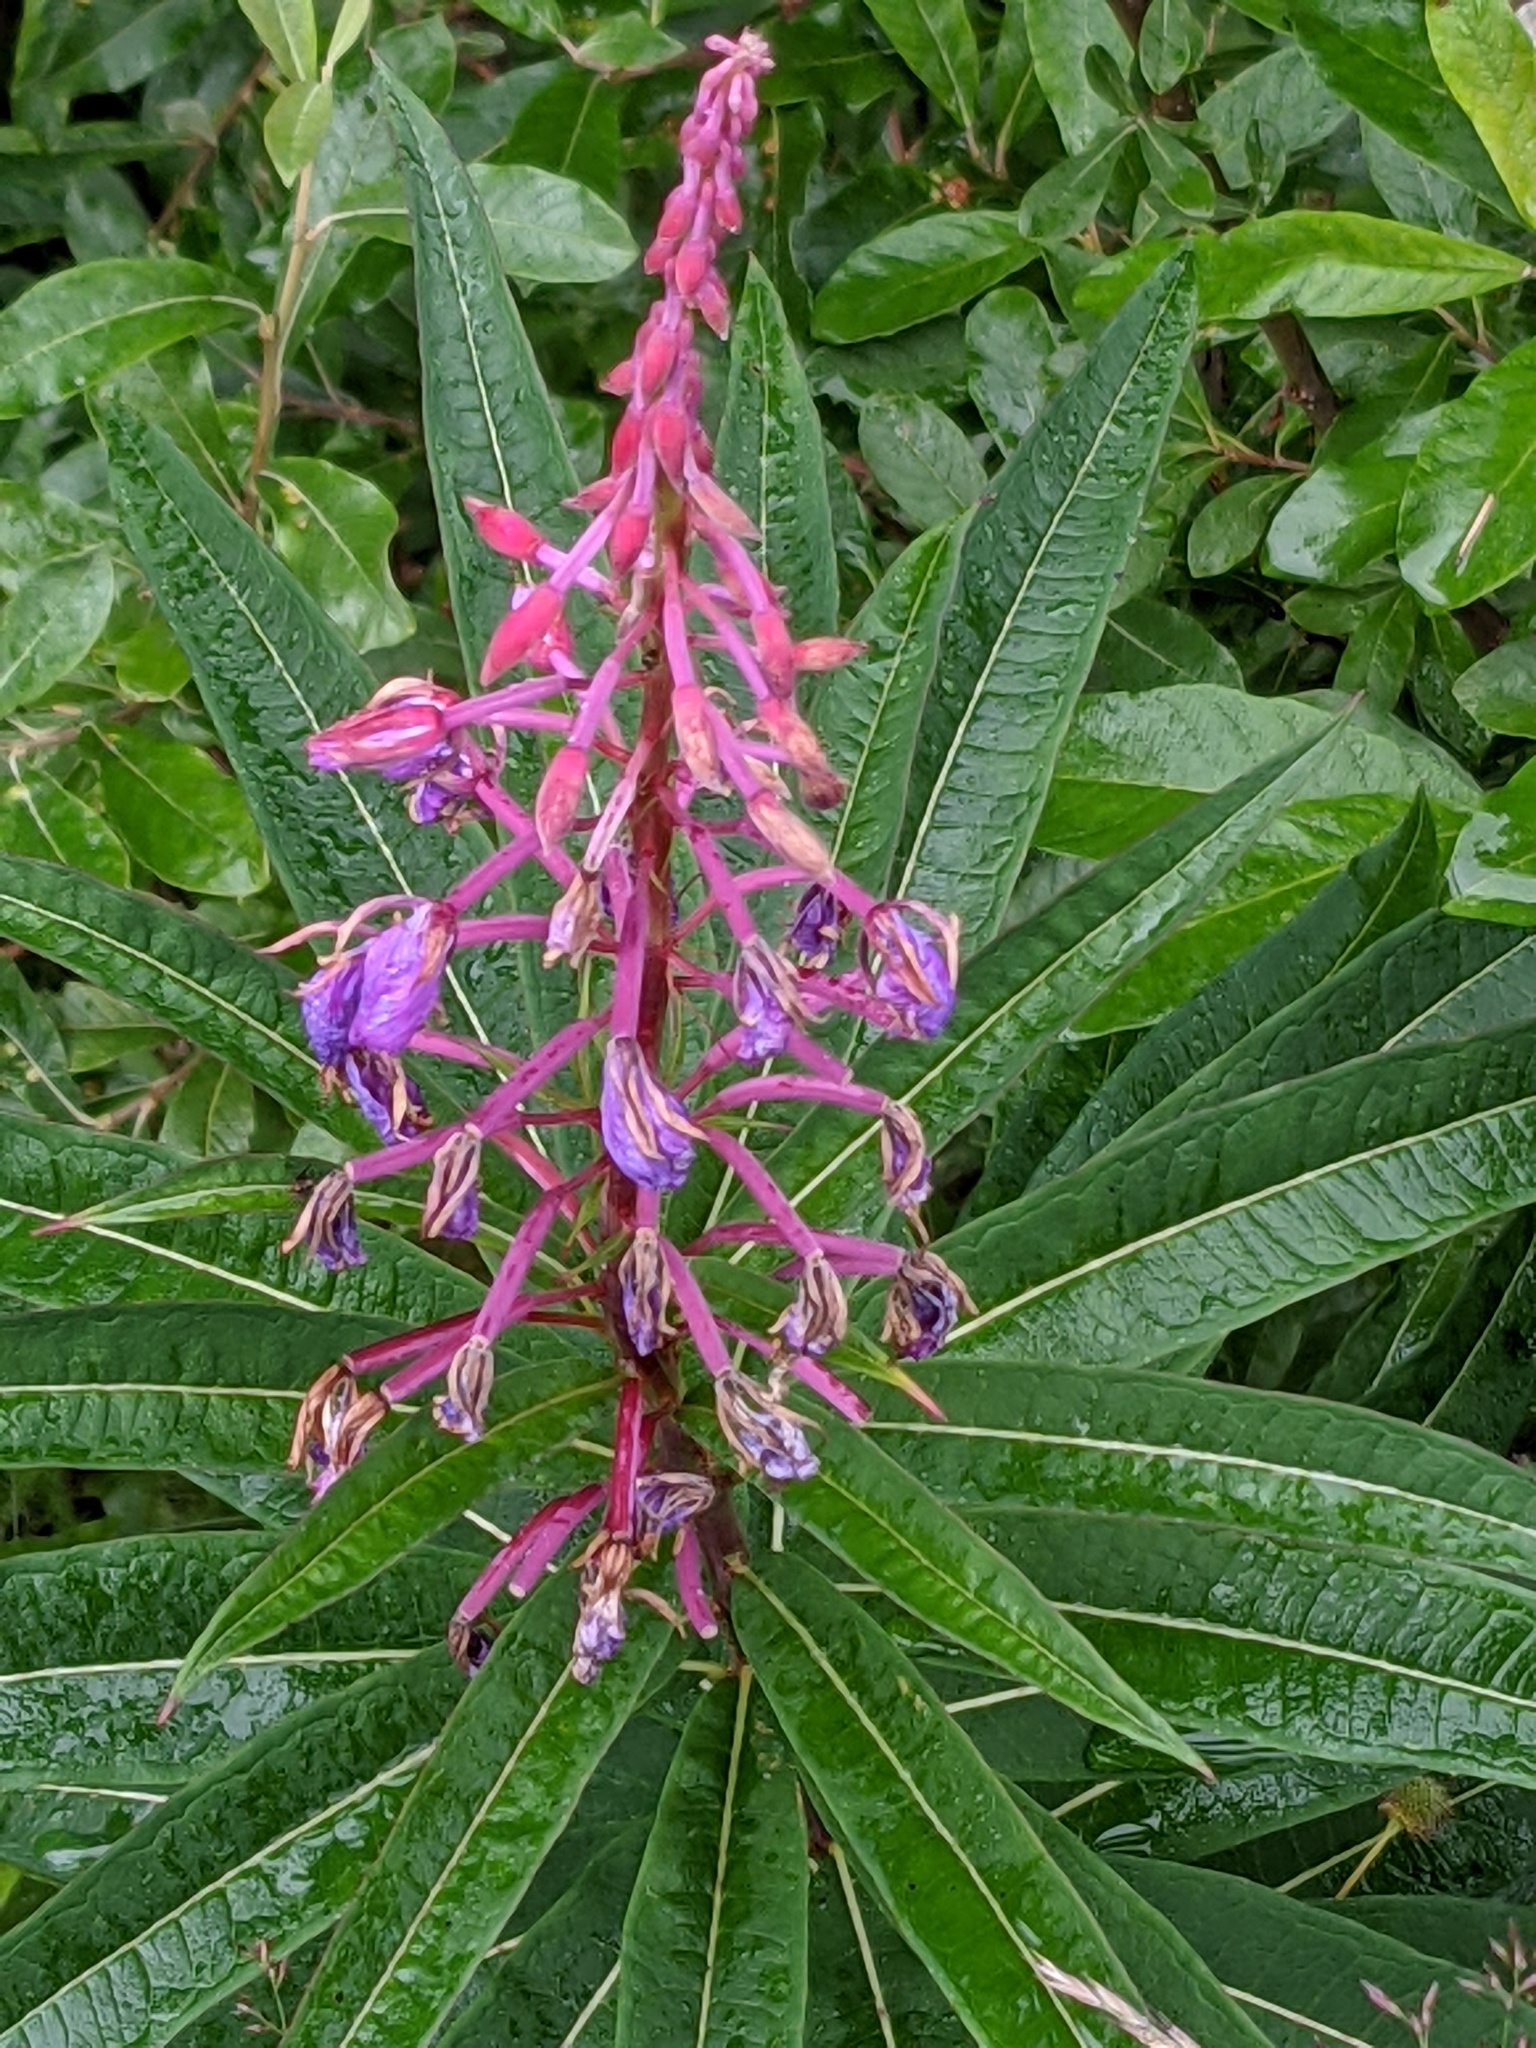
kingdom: Plantae
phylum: Tracheophyta
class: Magnoliopsida
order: Myrtales
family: Onagraceae
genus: Chamaenerion
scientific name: Chamaenerion angustifolium
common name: Fireweed
